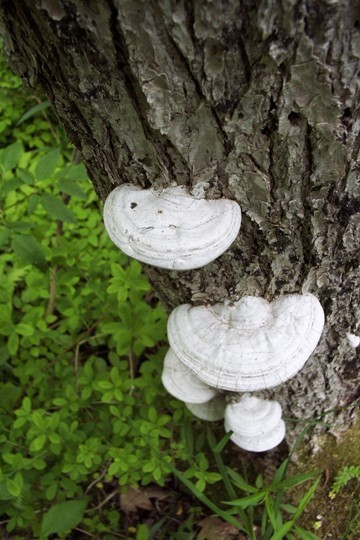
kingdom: Fungi
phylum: Basidiomycota
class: Agaricomycetes
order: Polyporales
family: Polyporaceae
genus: Ganoderma
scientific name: Ganoderma applanatum
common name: Artist's bracket
